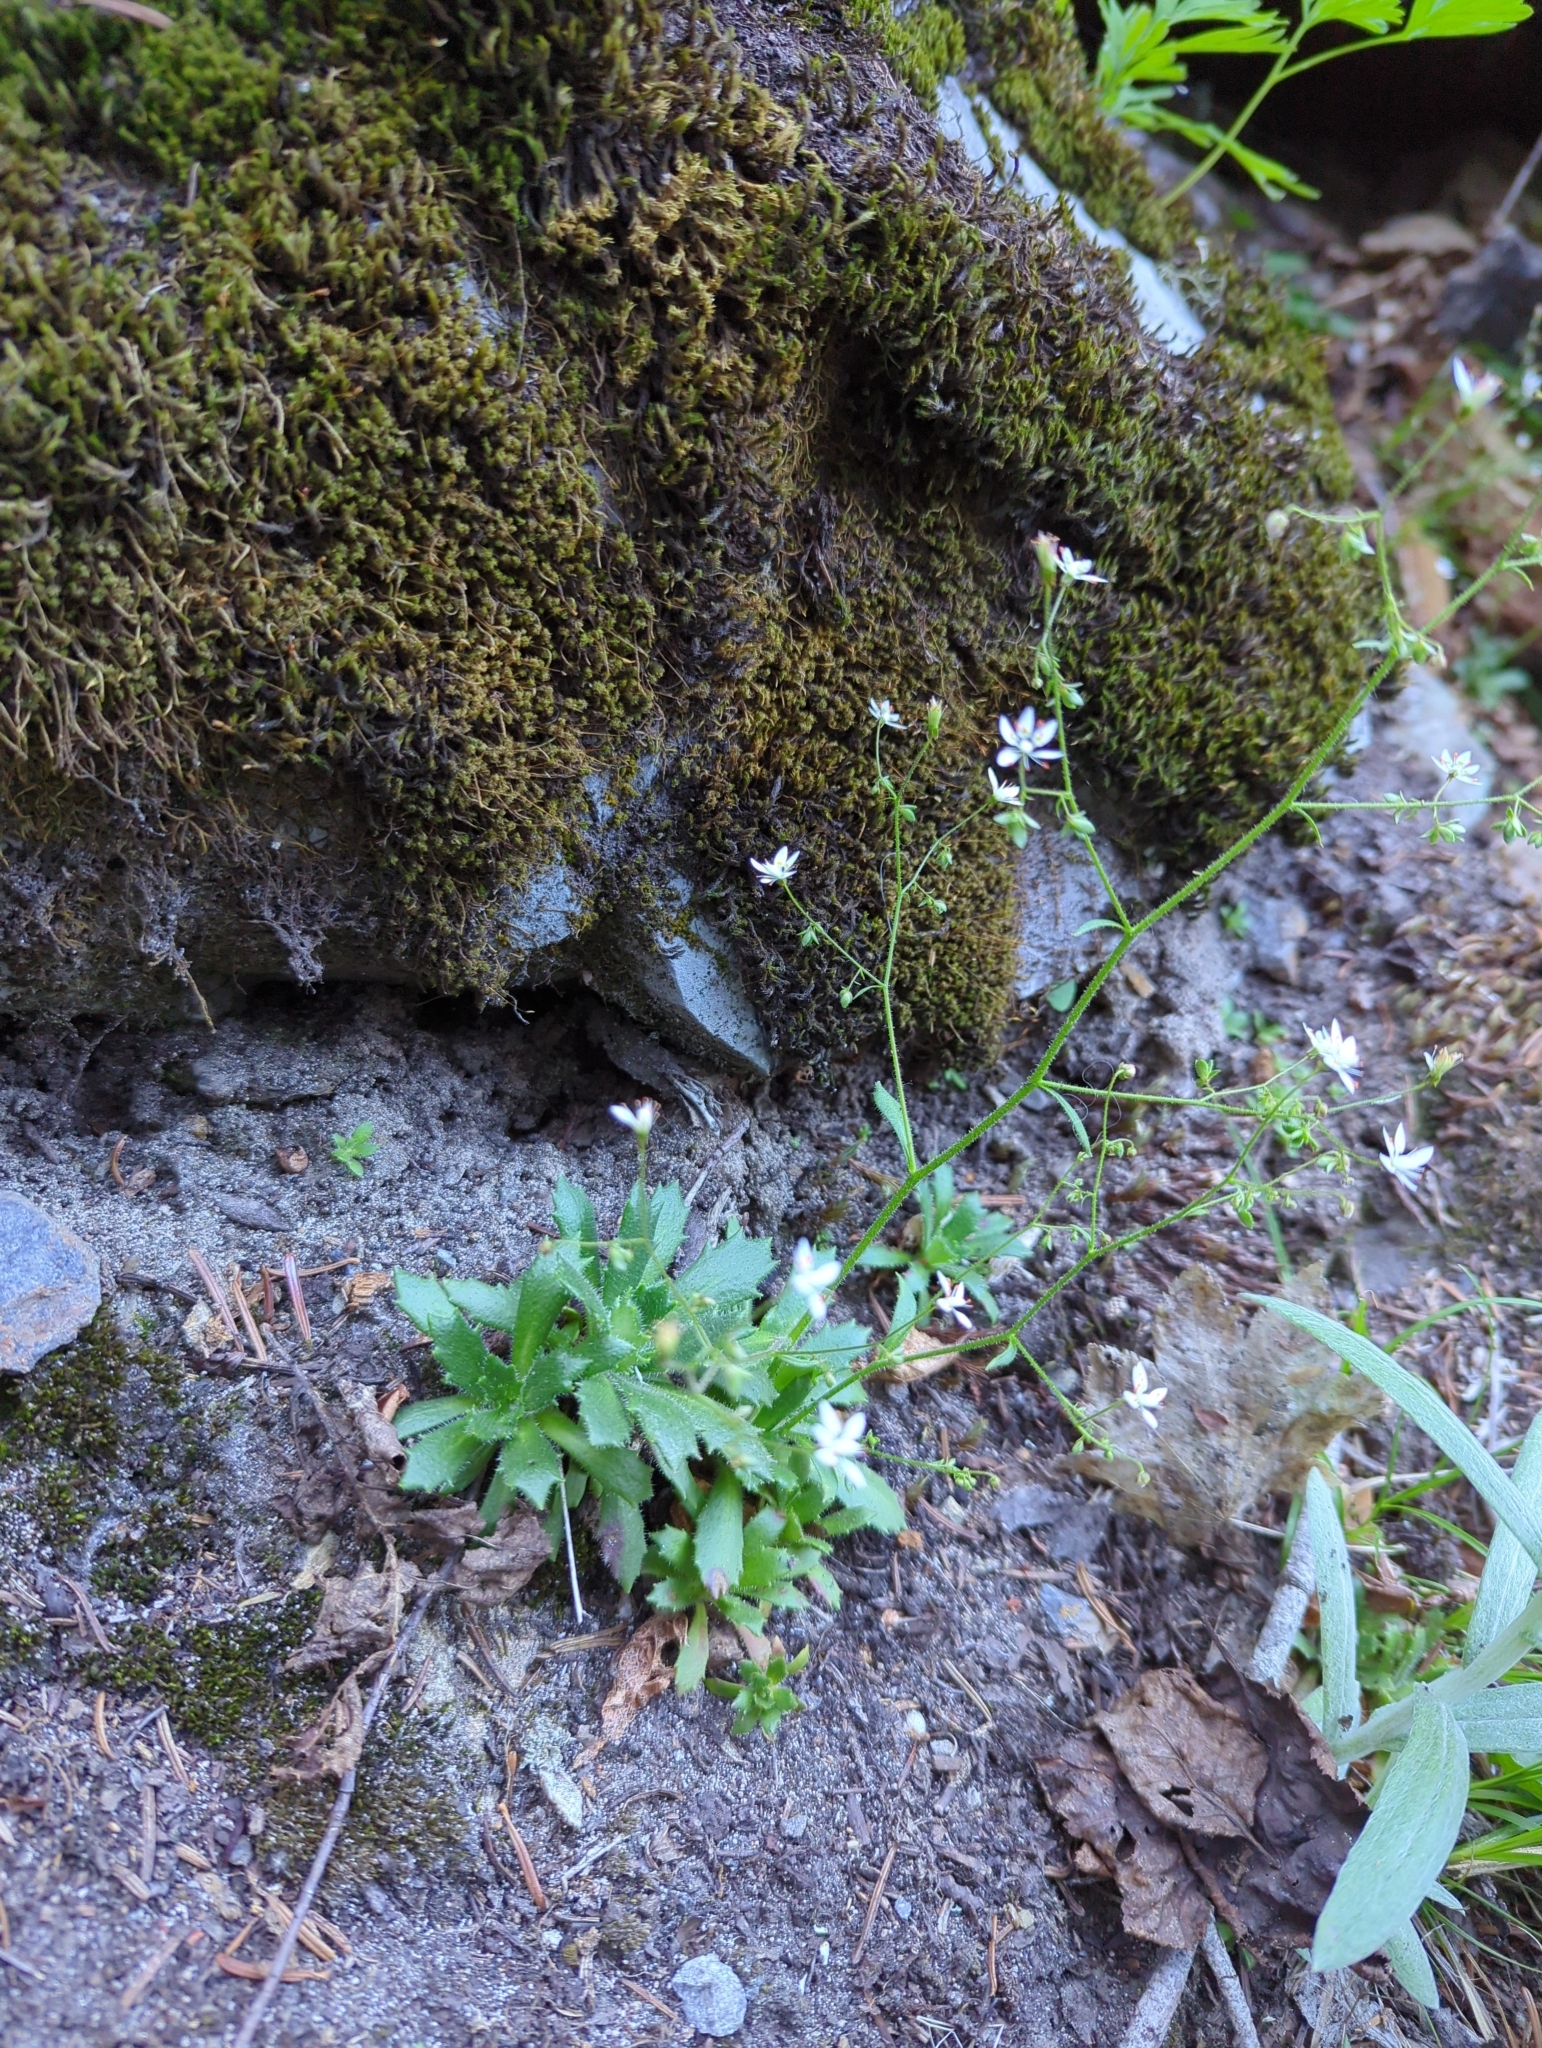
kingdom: Plantae
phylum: Tracheophyta
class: Magnoliopsida
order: Saxifragales
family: Saxifragaceae
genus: Micranthes
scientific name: Micranthes ferruginea
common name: Rusty saxifrage
